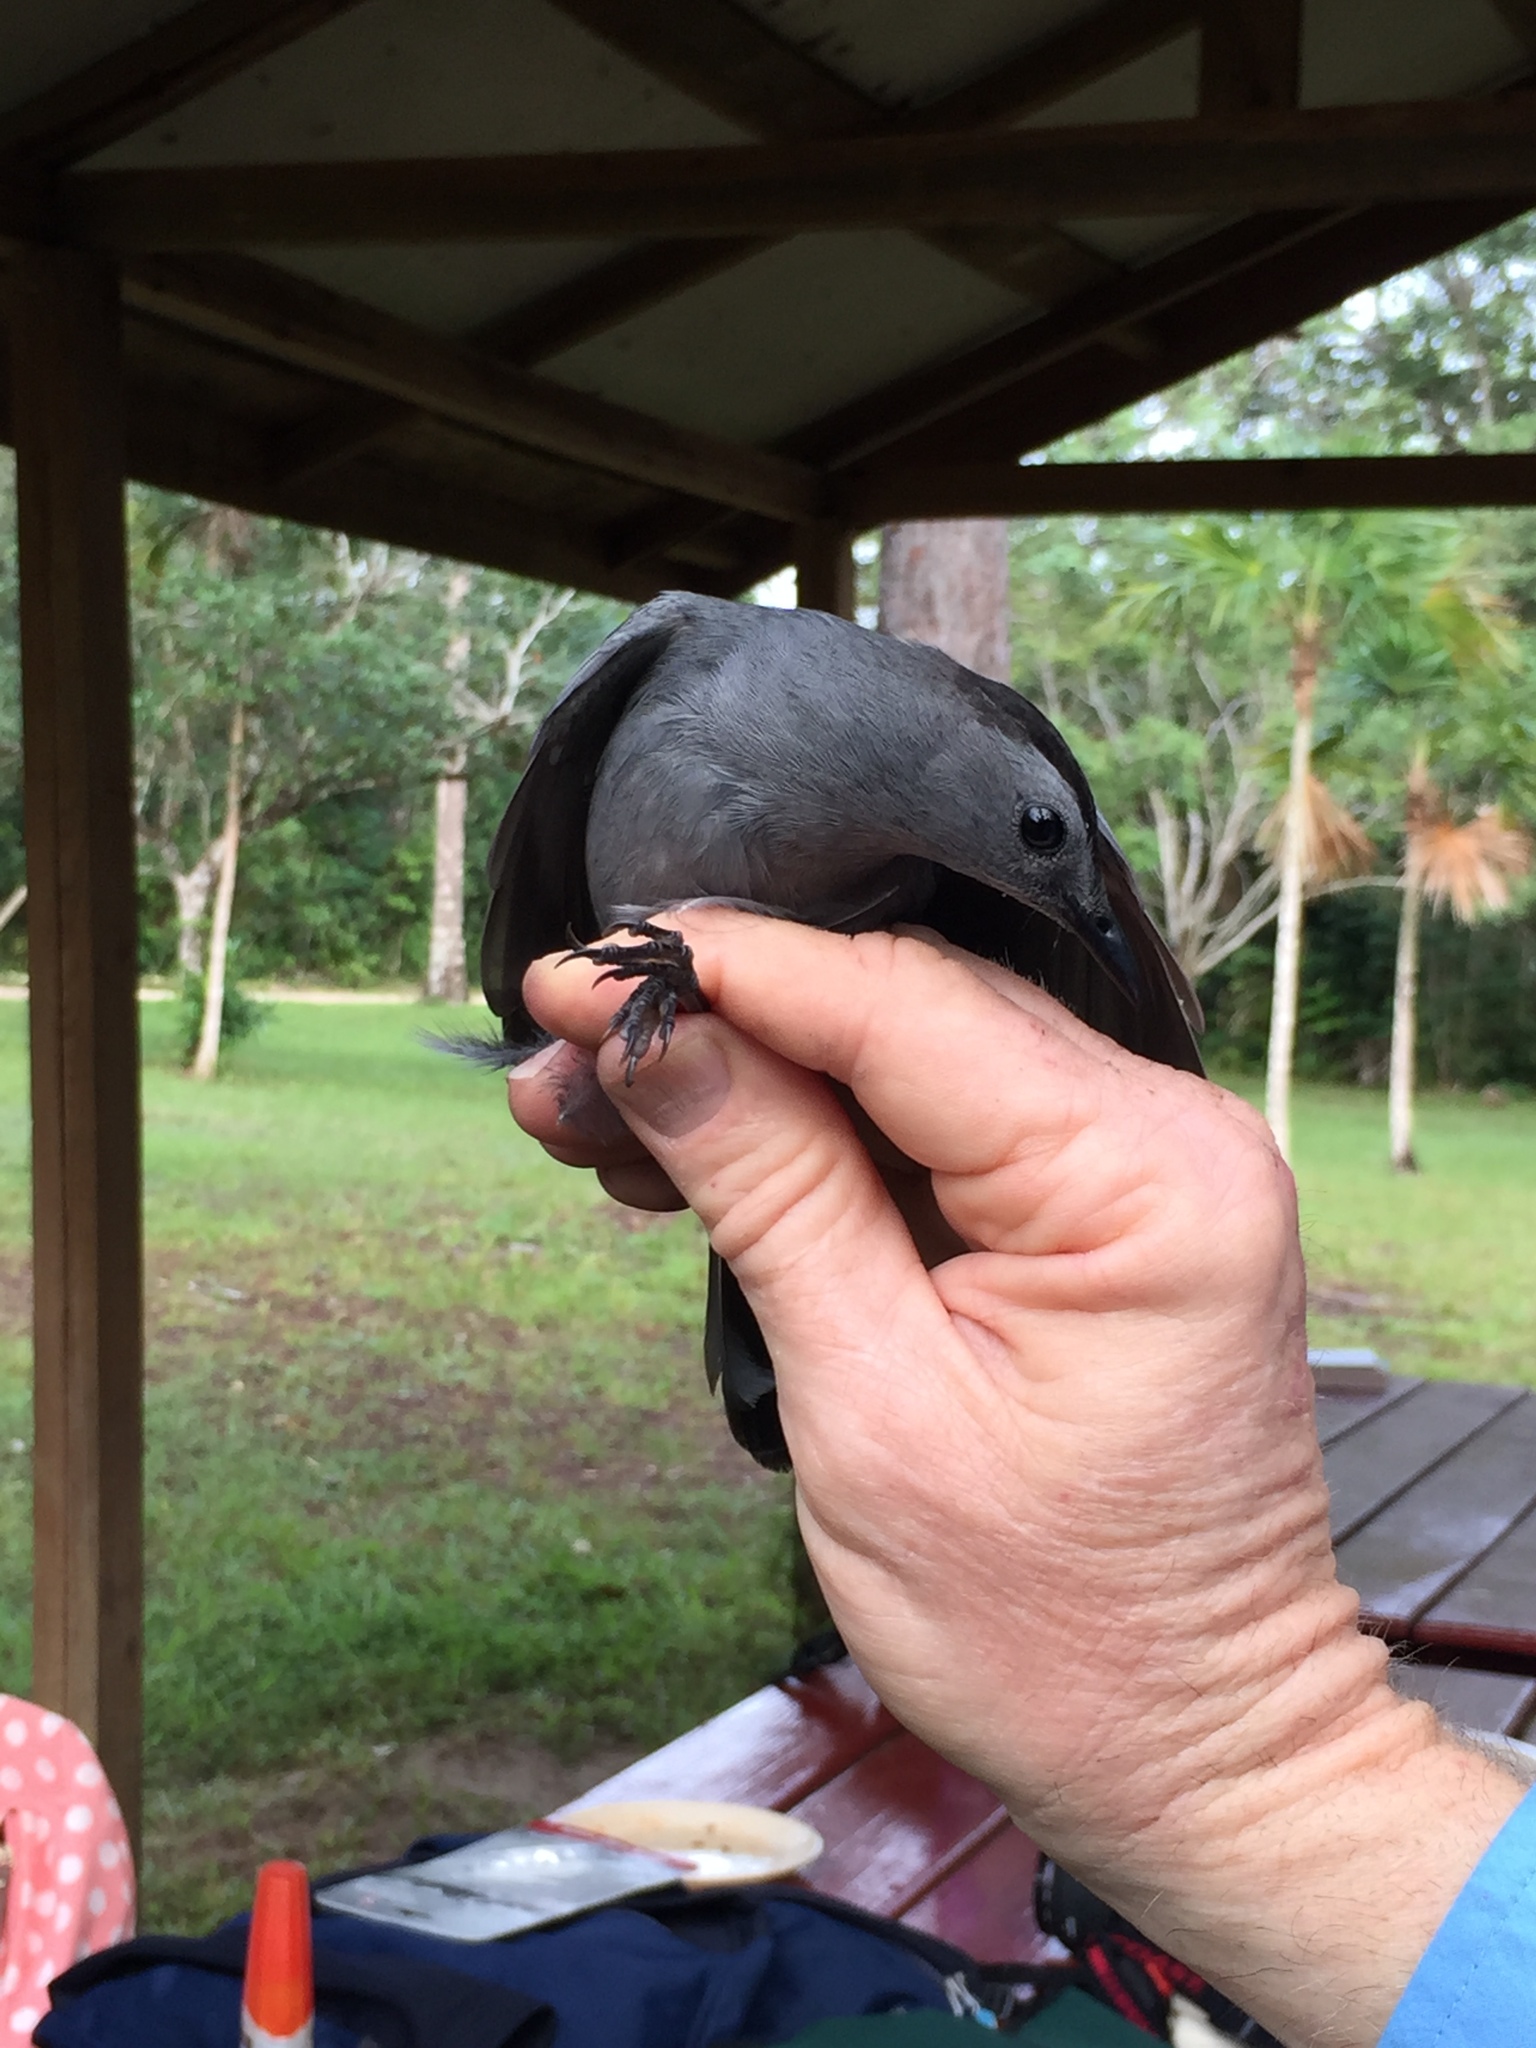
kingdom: Animalia
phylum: Chordata
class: Aves
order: Passeriformes
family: Mimidae
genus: Dumetella
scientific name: Dumetella carolinensis
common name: Gray catbird
